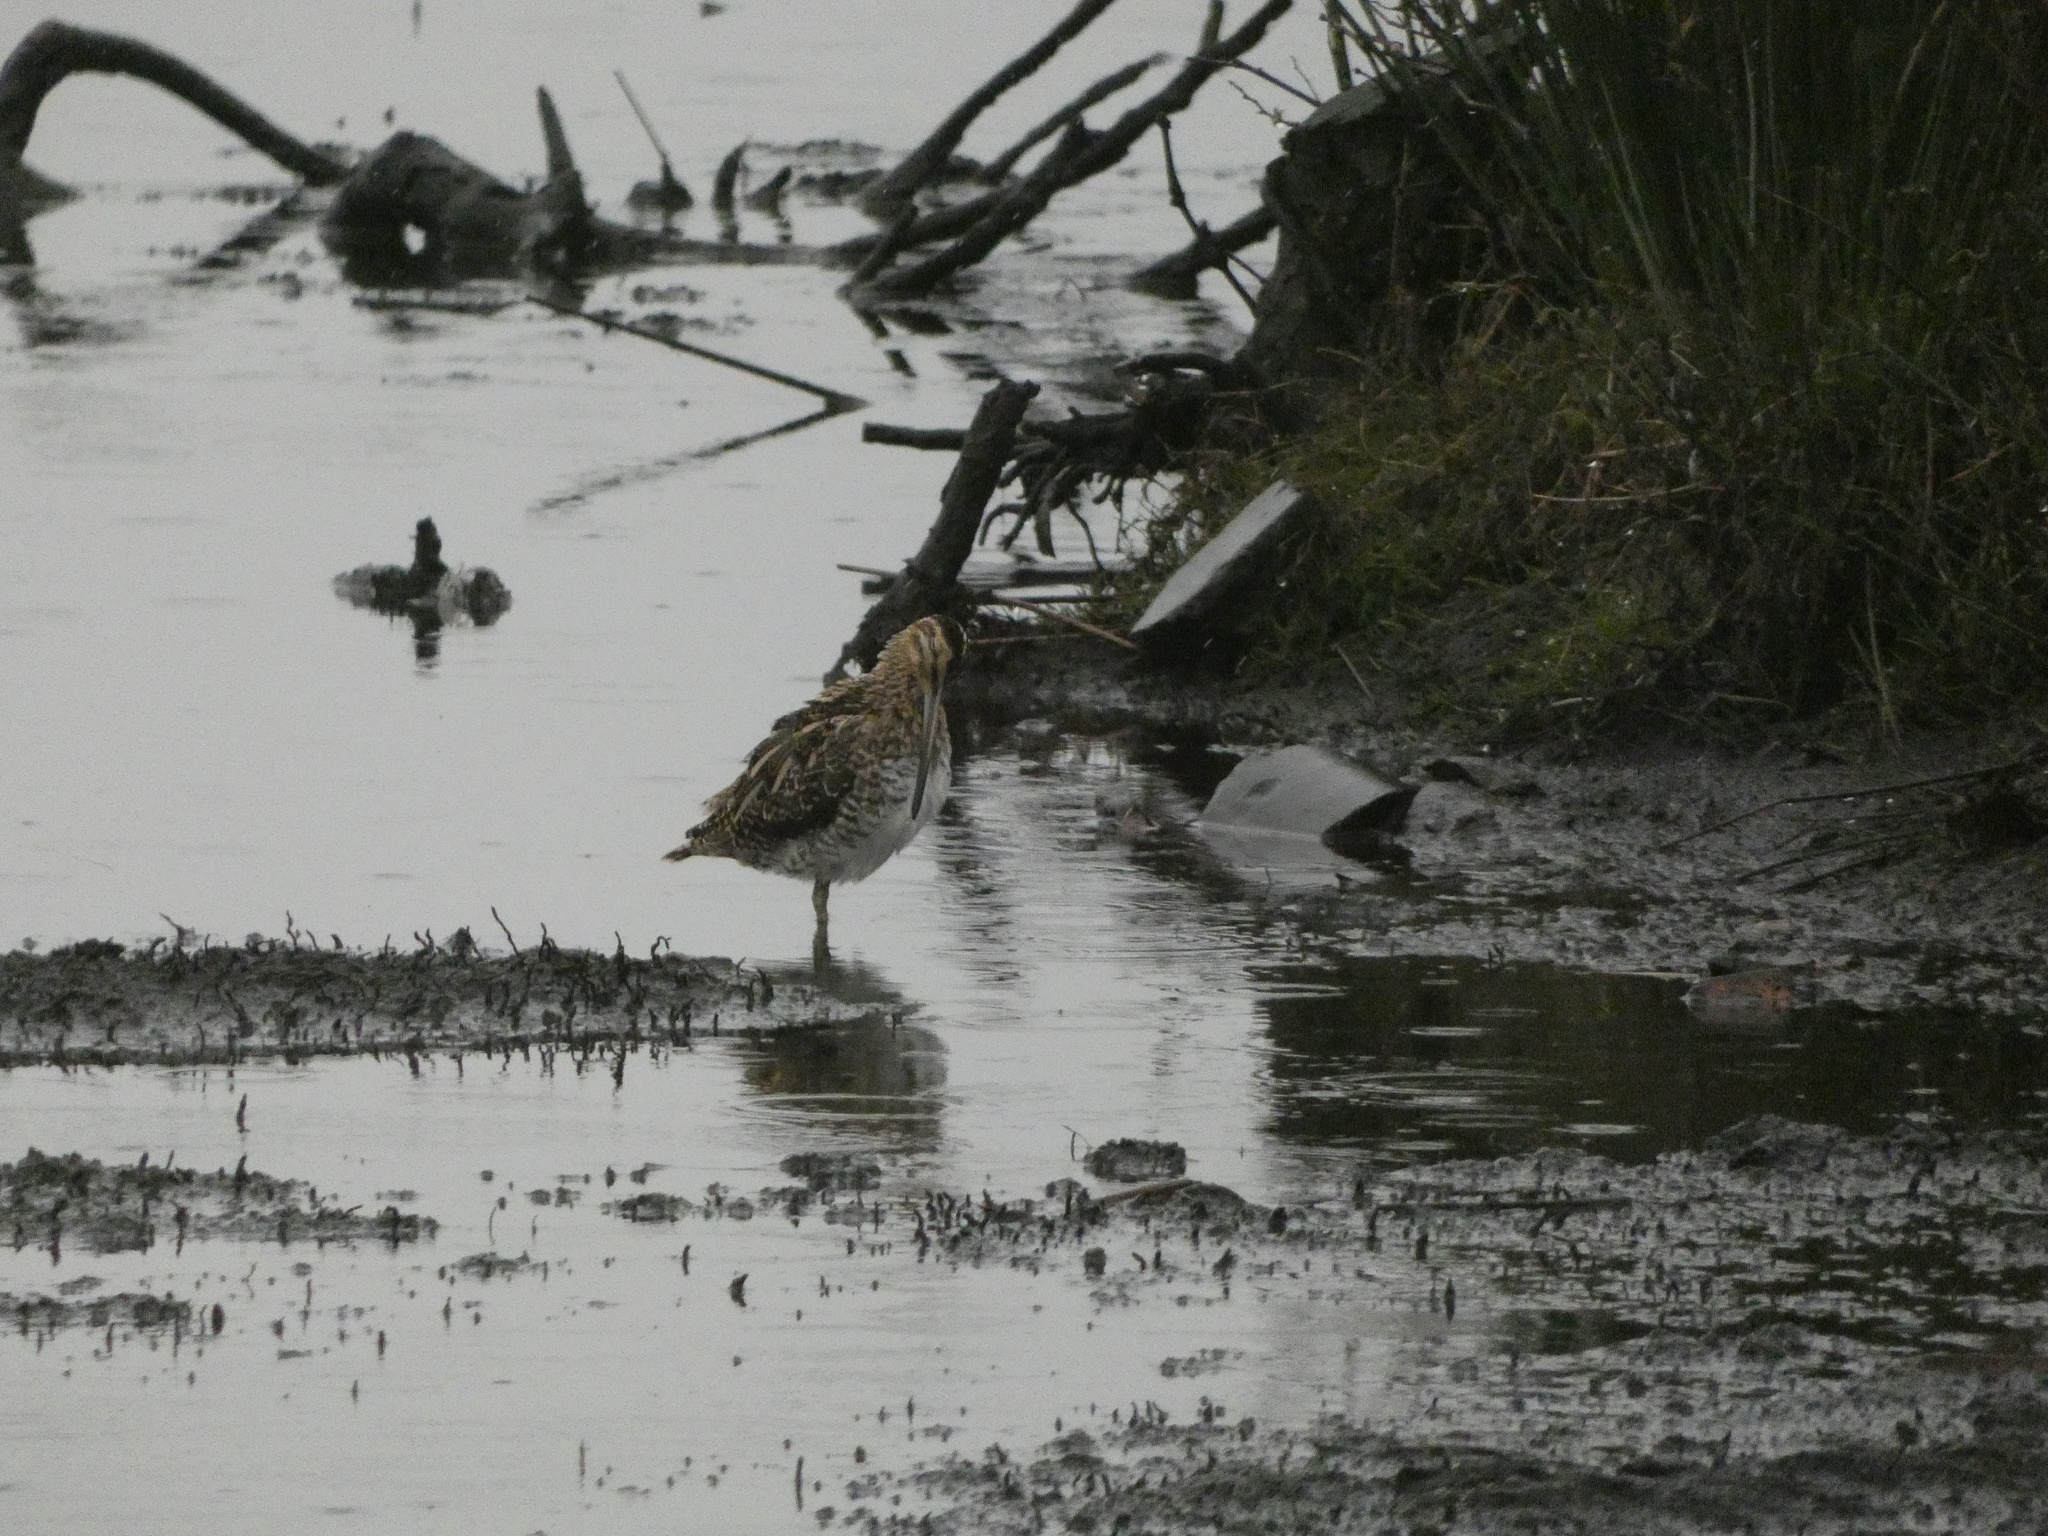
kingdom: Animalia
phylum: Chordata
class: Aves
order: Charadriiformes
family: Scolopacidae
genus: Gallinago
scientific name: Gallinago gallinago
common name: Common snipe
